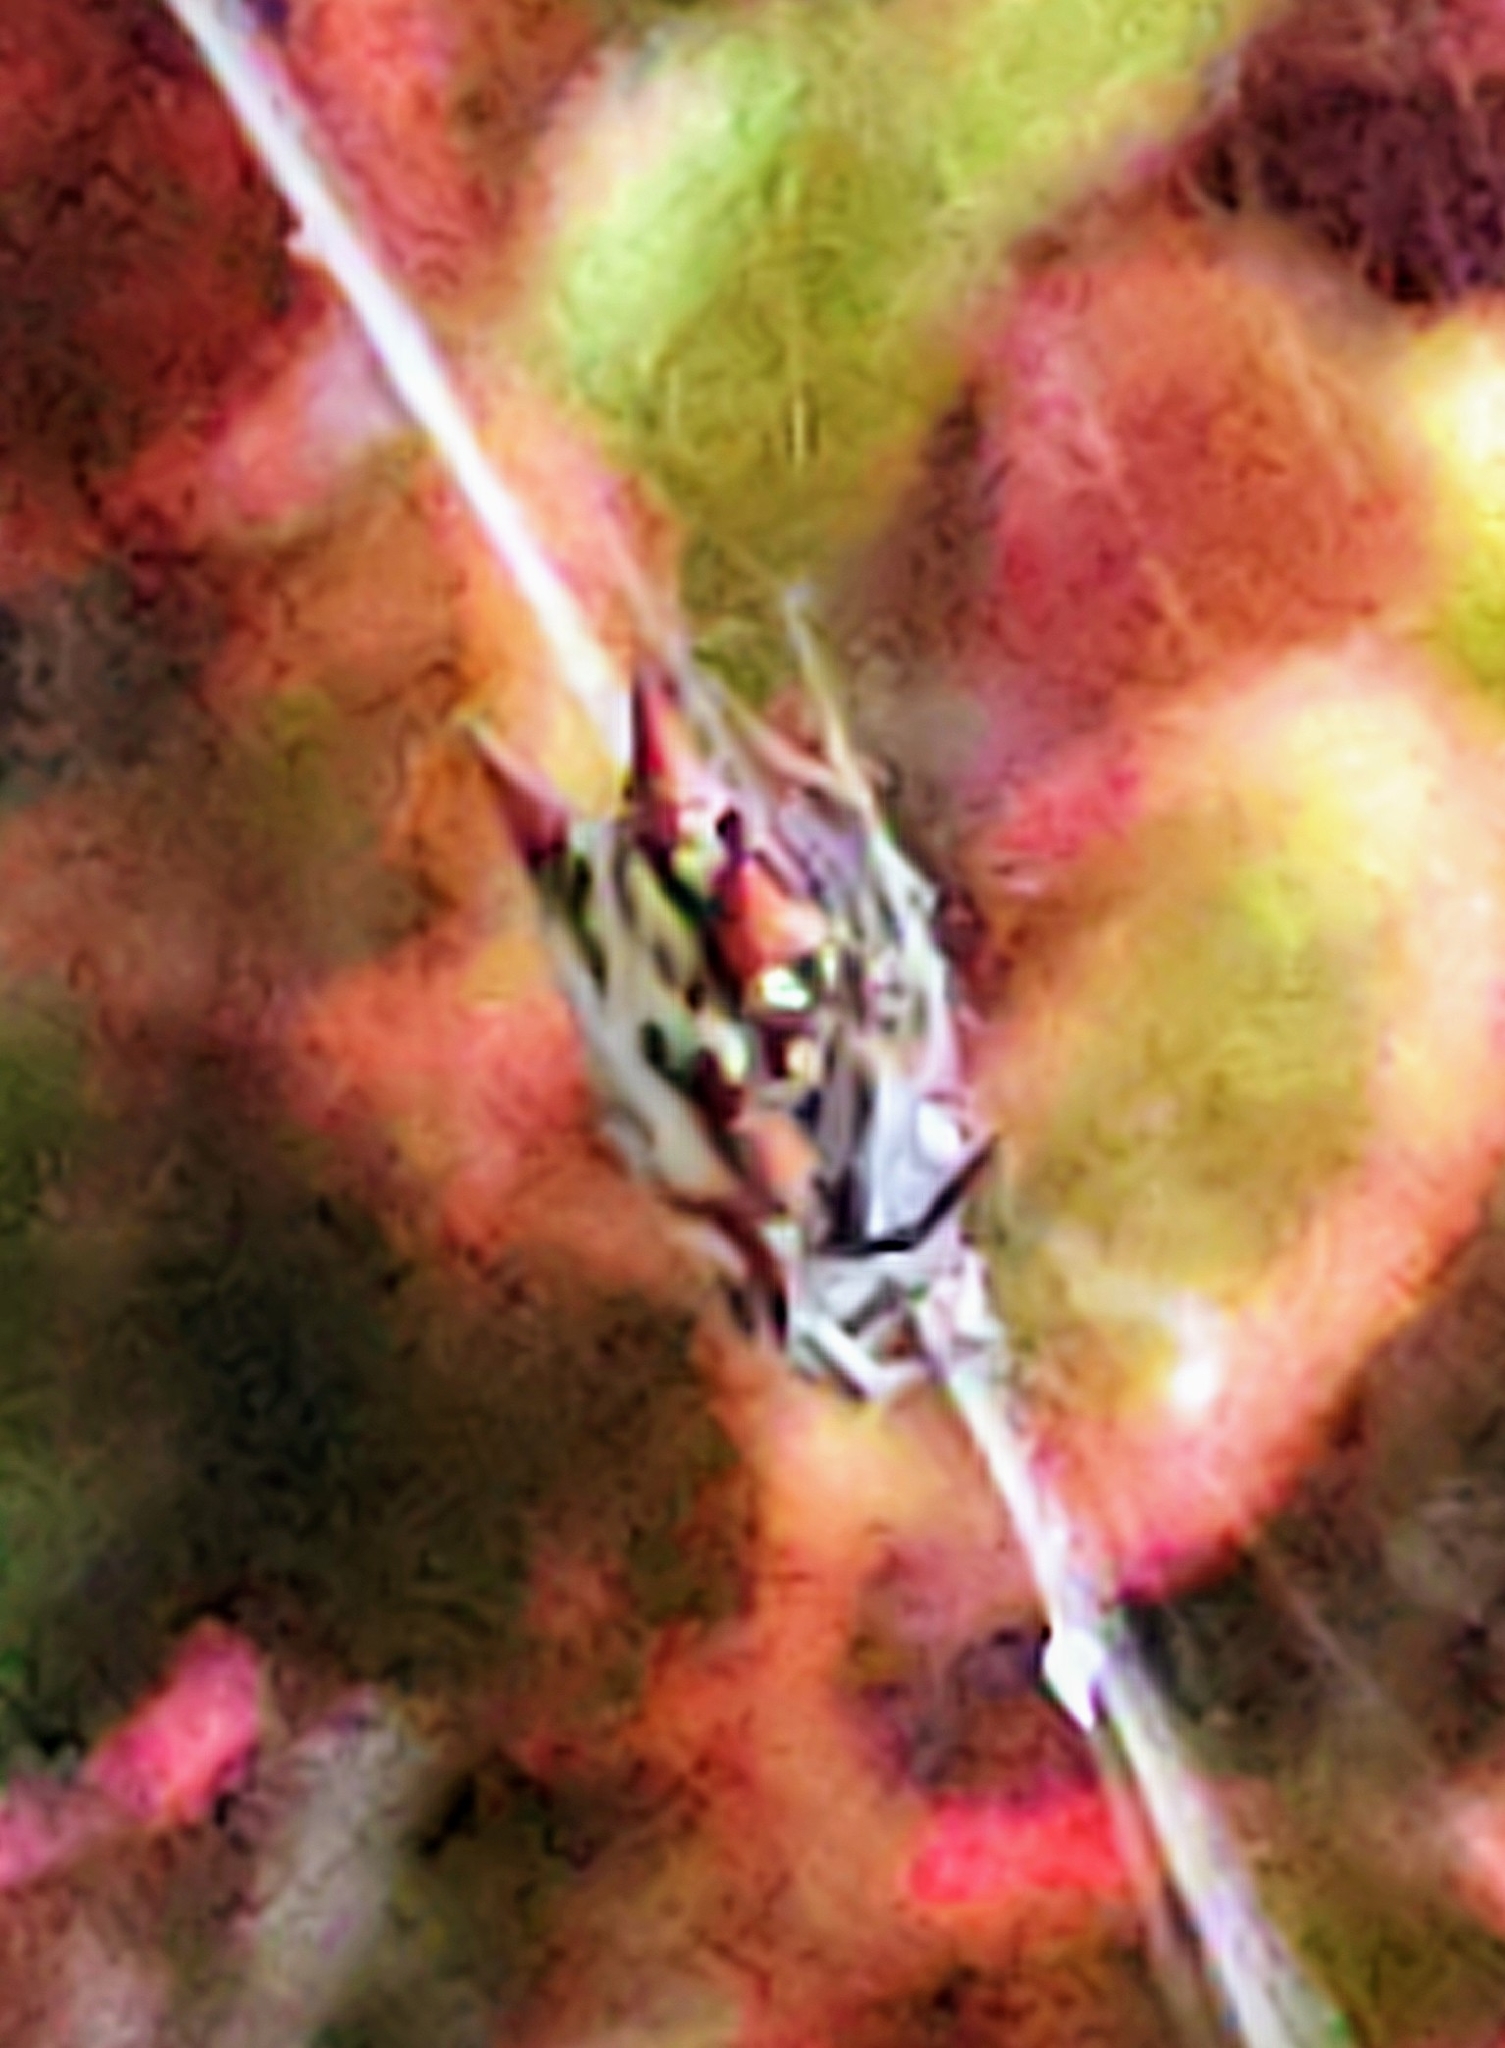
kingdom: Animalia
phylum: Arthropoda
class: Arachnida
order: Araneae
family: Araneidae
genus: Gasteracantha
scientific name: Gasteracantha cancriformis
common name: Orb weavers
